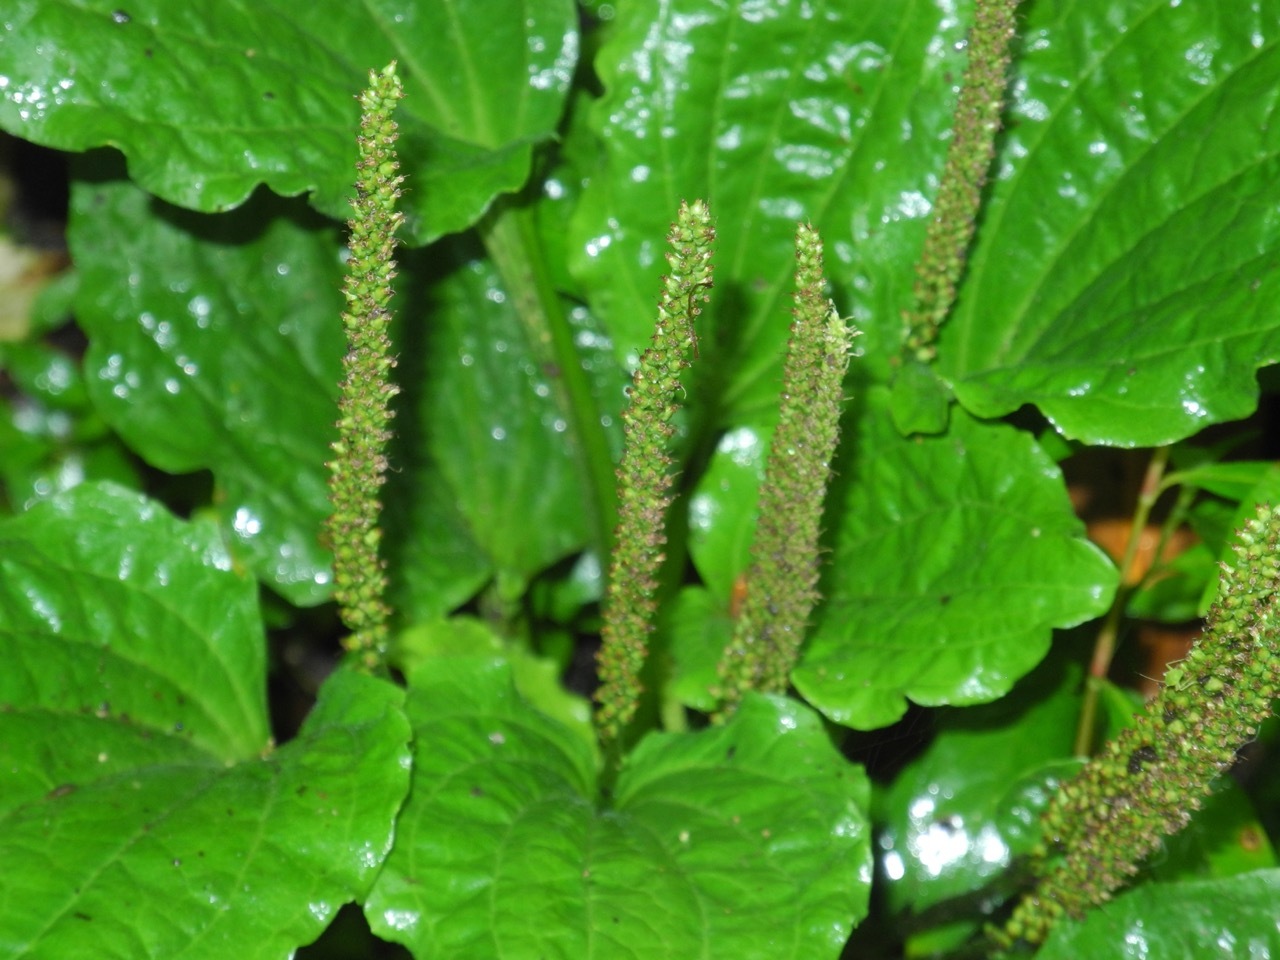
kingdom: Plantae
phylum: Tracheophyta
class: Magnoliopsida
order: Lamiales
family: Plantaginaceae
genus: Plantago
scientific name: Plantago major
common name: Common plantain
